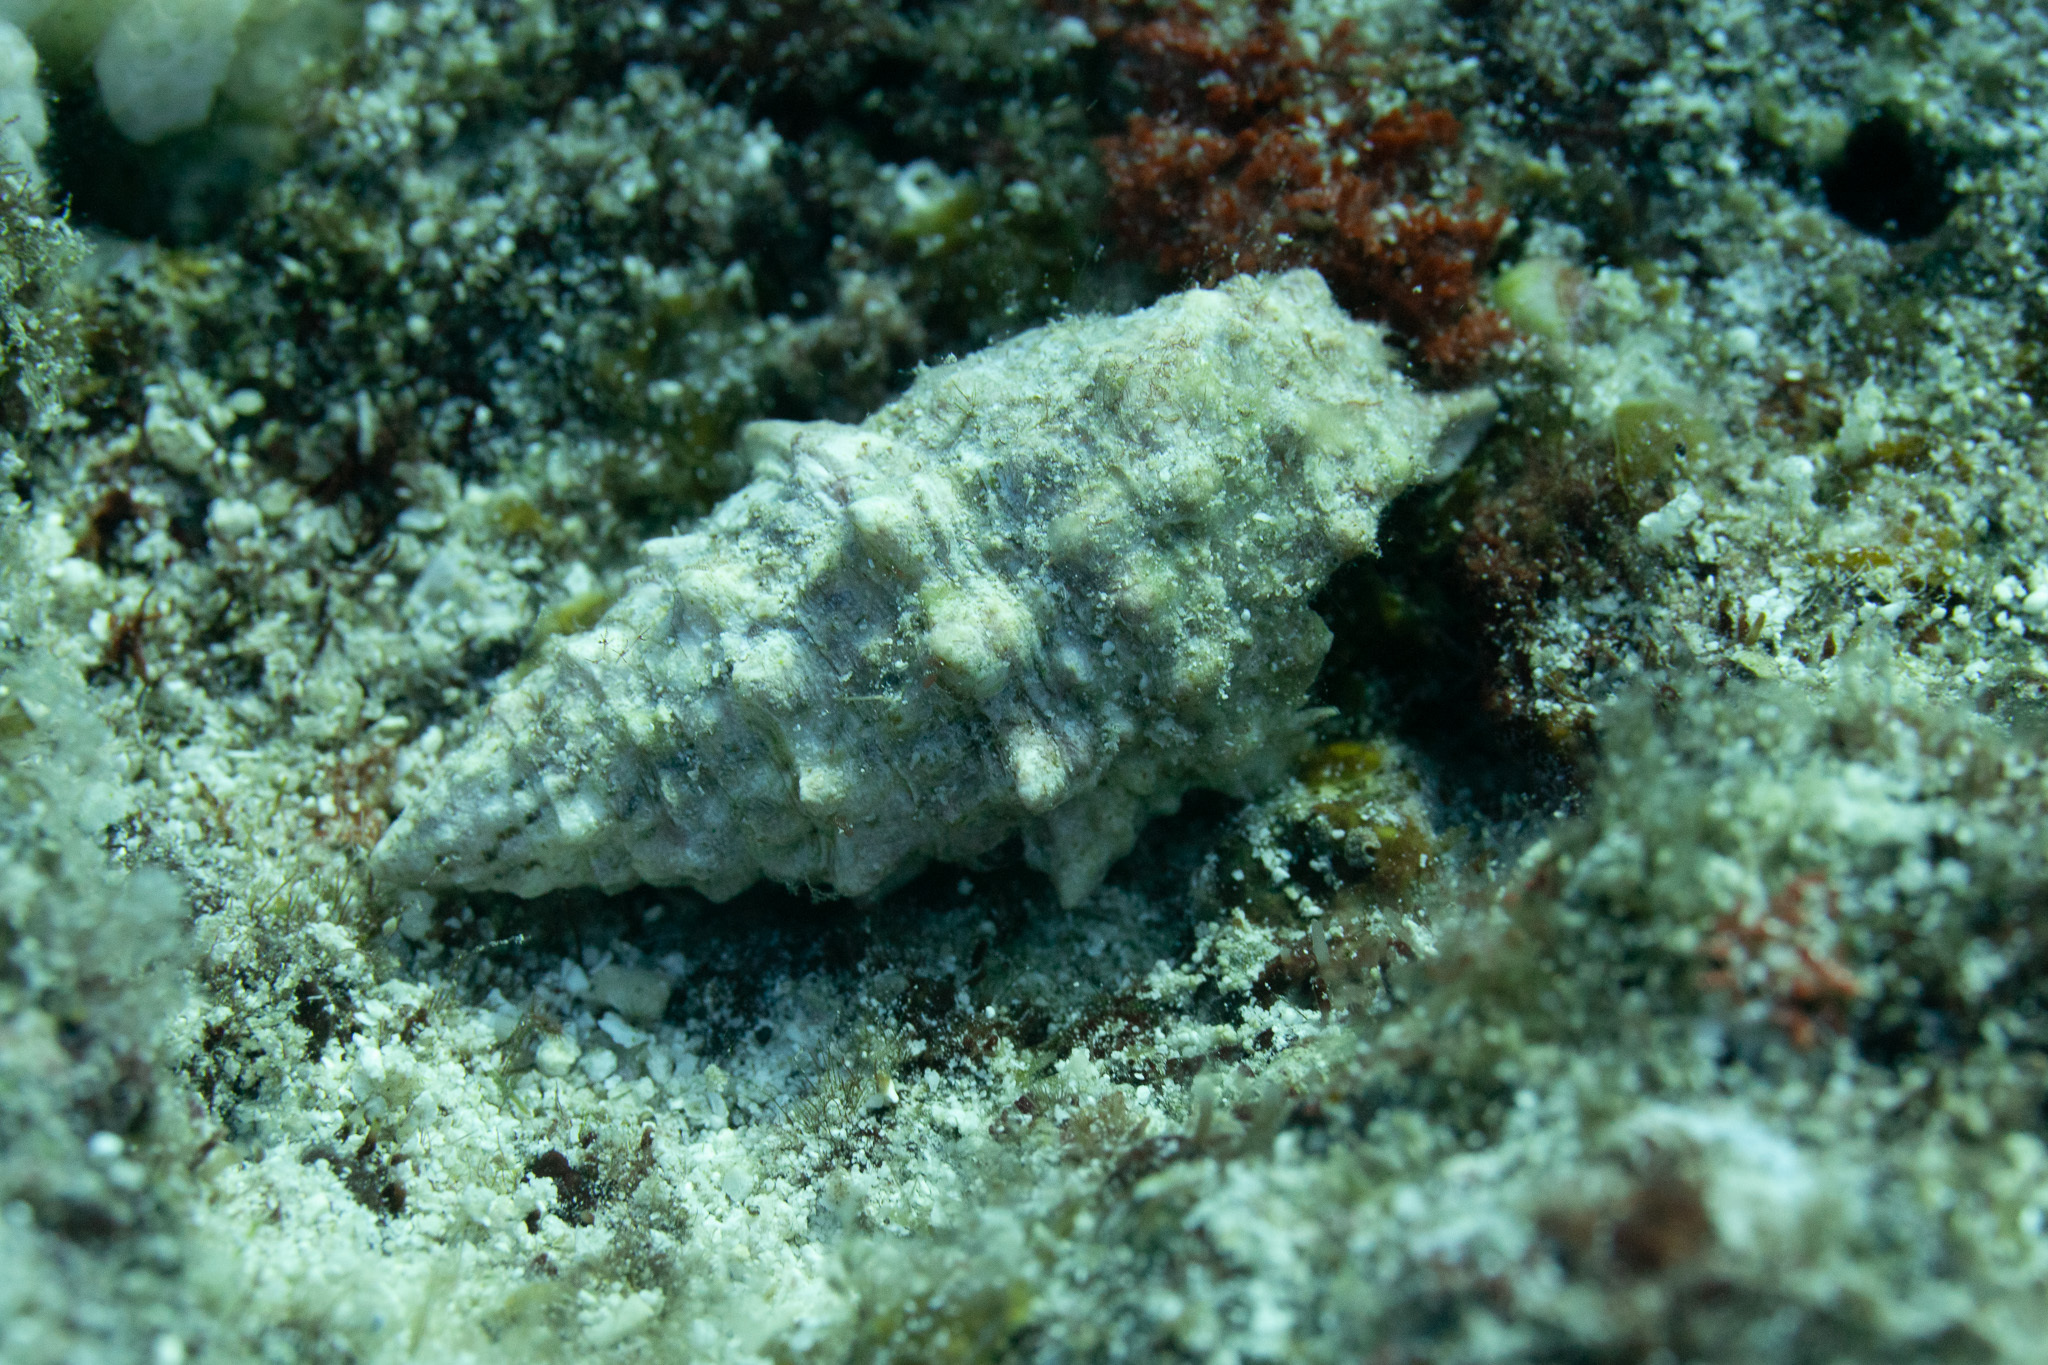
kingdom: Animalia
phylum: Mollusca
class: Gastropoda
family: Cerithiidae
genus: Cerithium
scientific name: Cerithium echinatum
